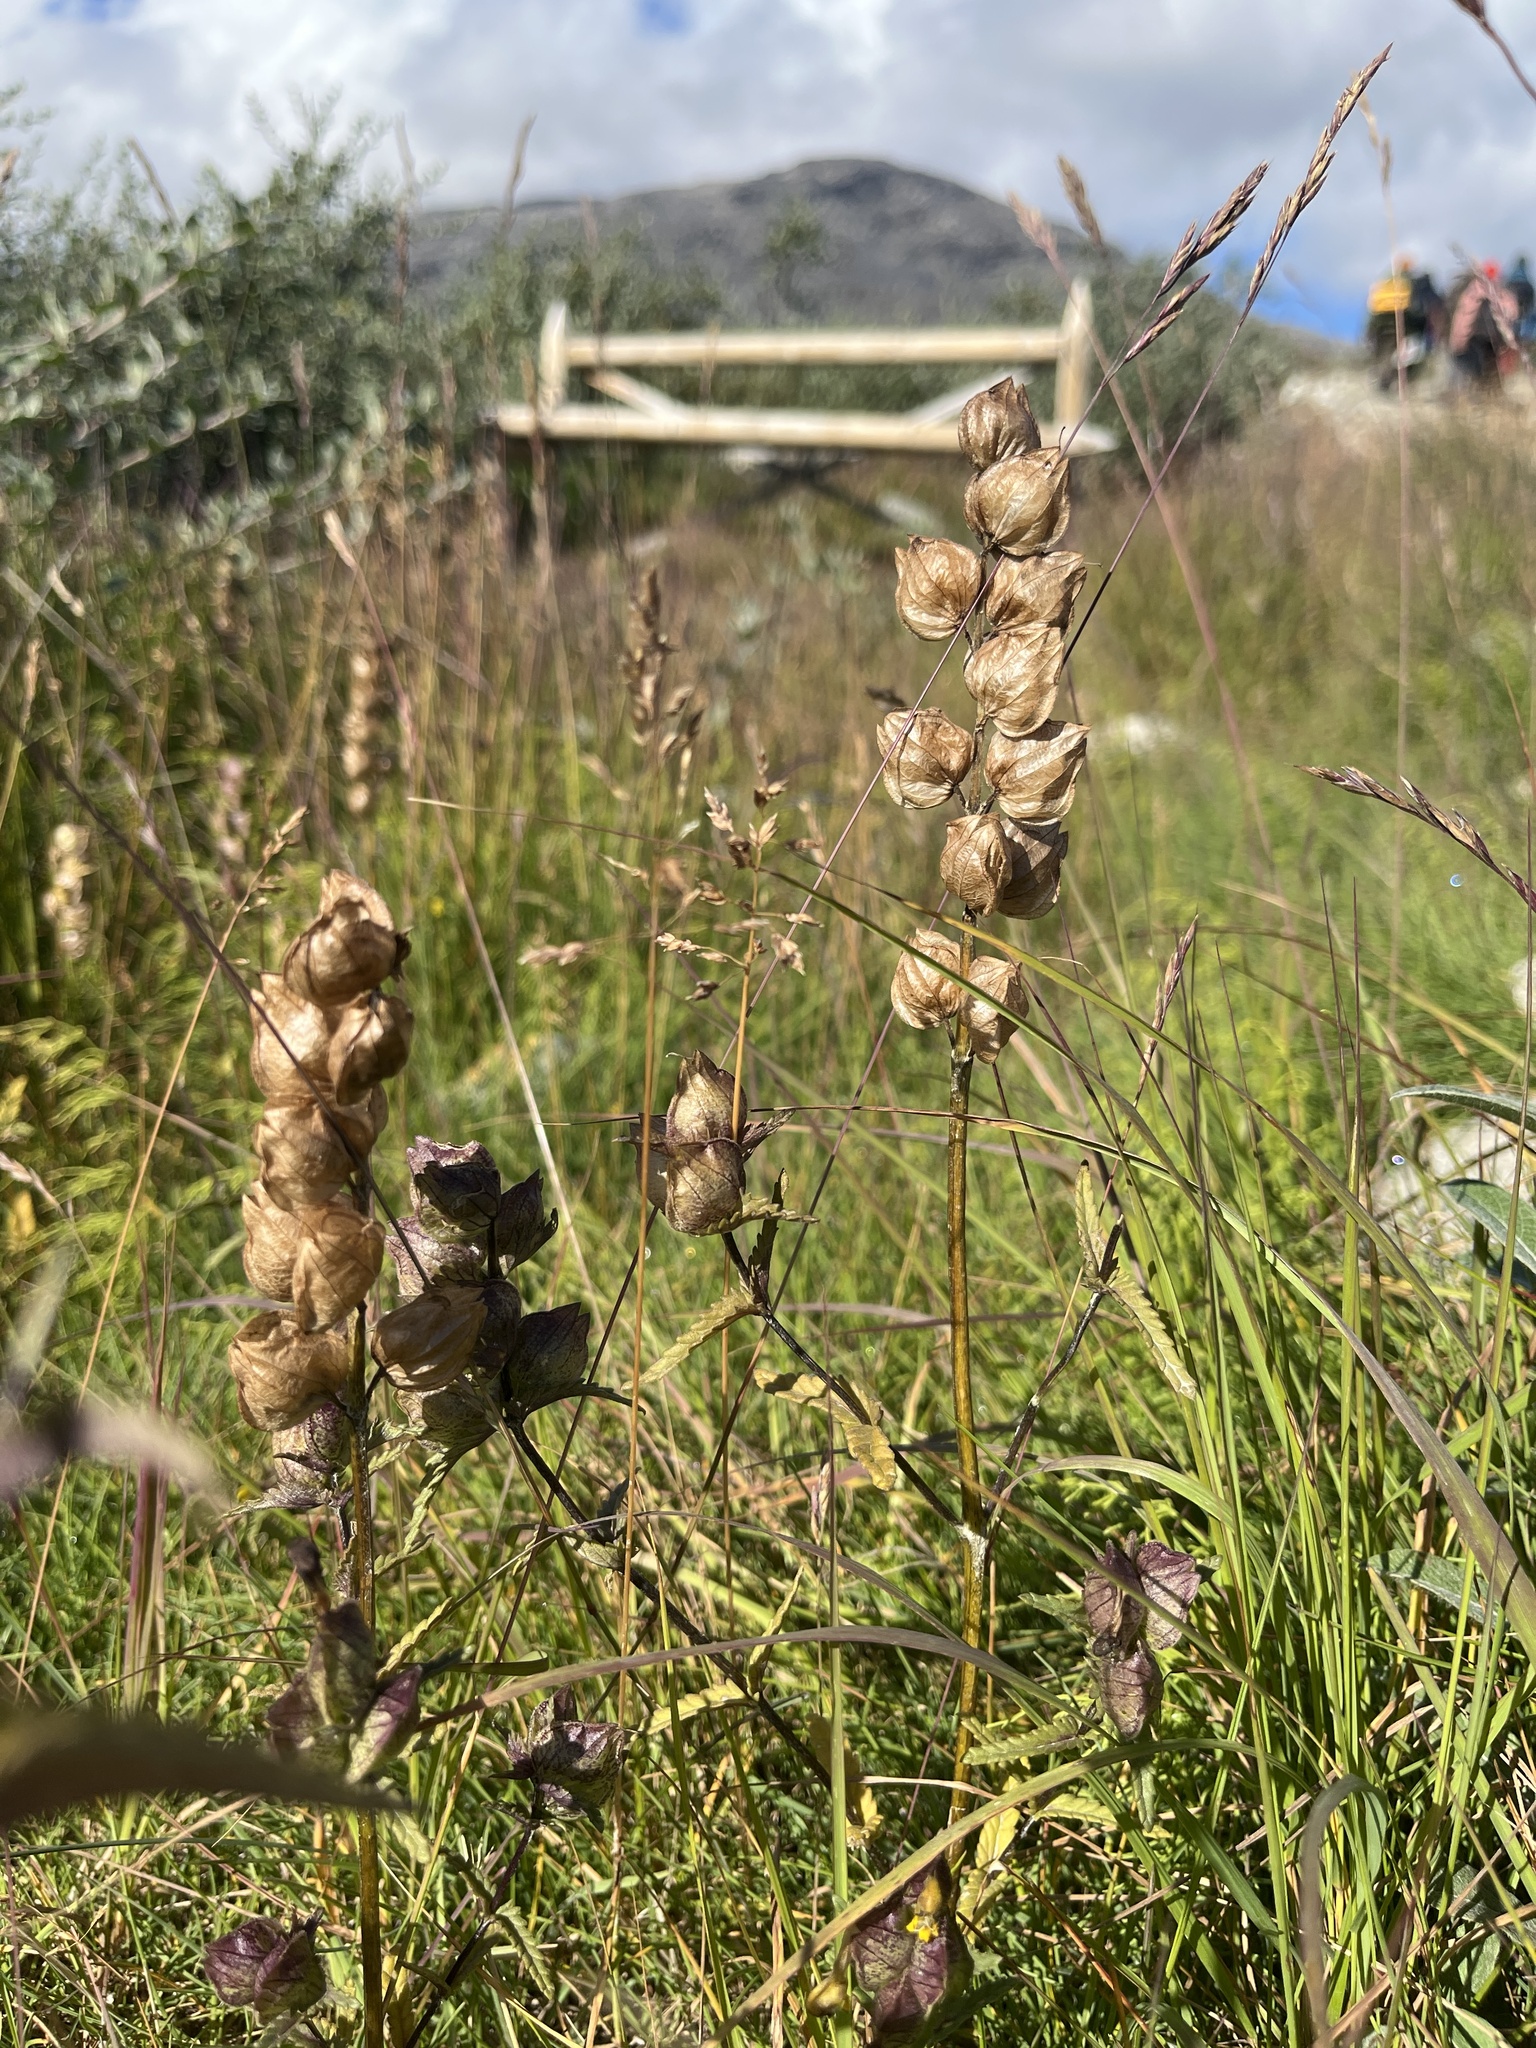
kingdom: Plantae
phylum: Tracheophyta
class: Magnoliopsida
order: Lamiales
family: Orobanchaceae
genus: Rhinanthus
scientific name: Rhinanthus minor
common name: Yellow-rattle
